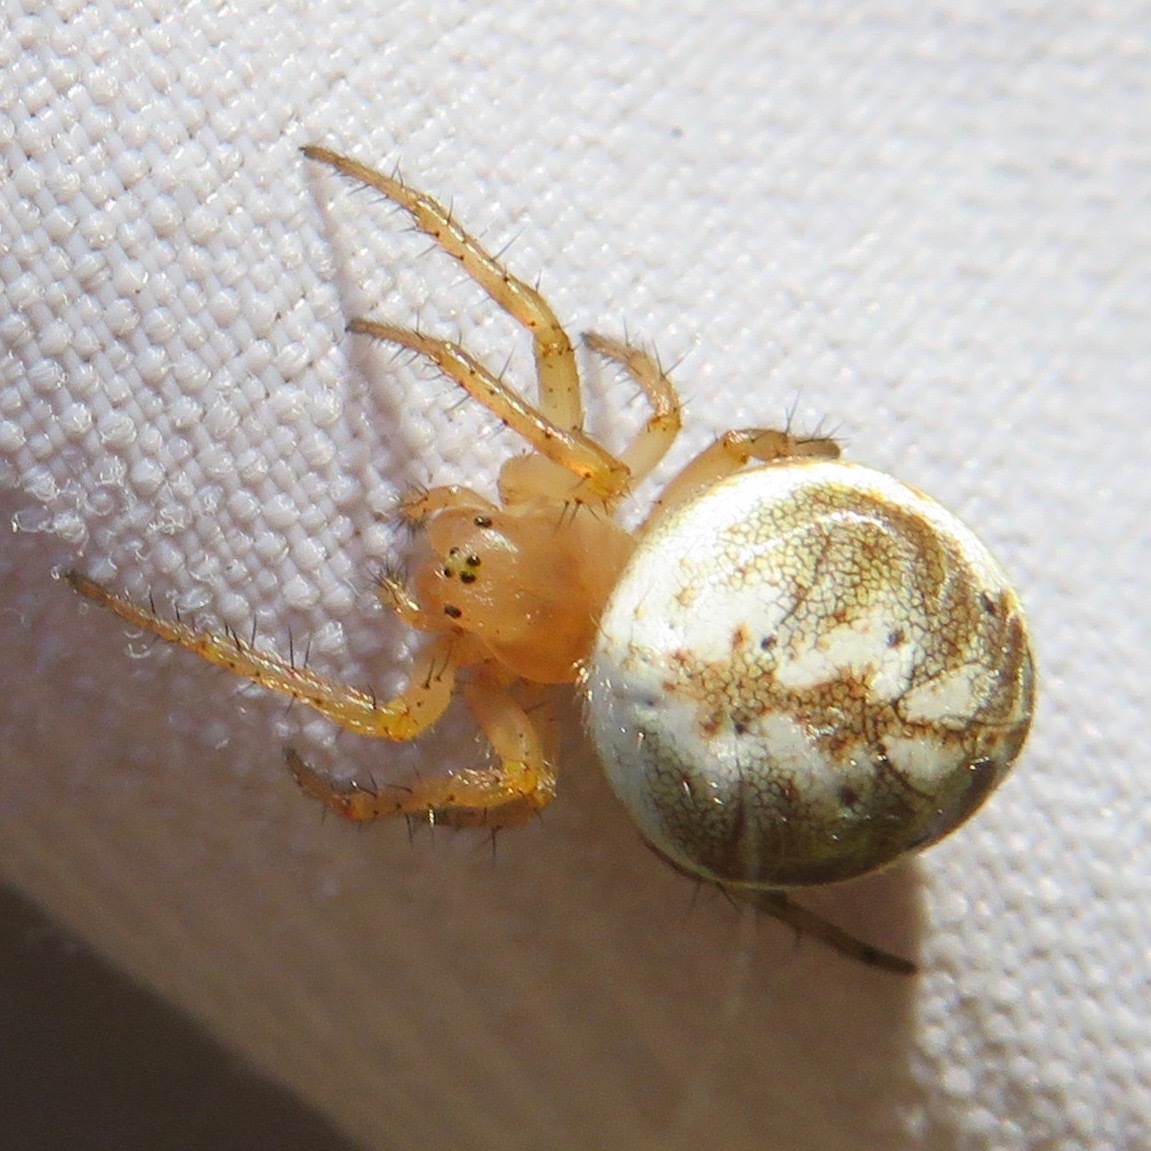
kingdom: Animalia
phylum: Arthropoda
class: Arachnida
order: Araneae
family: Araneidae
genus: Araniella
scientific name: Araniella displicata
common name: Sixspotted orb weaver
